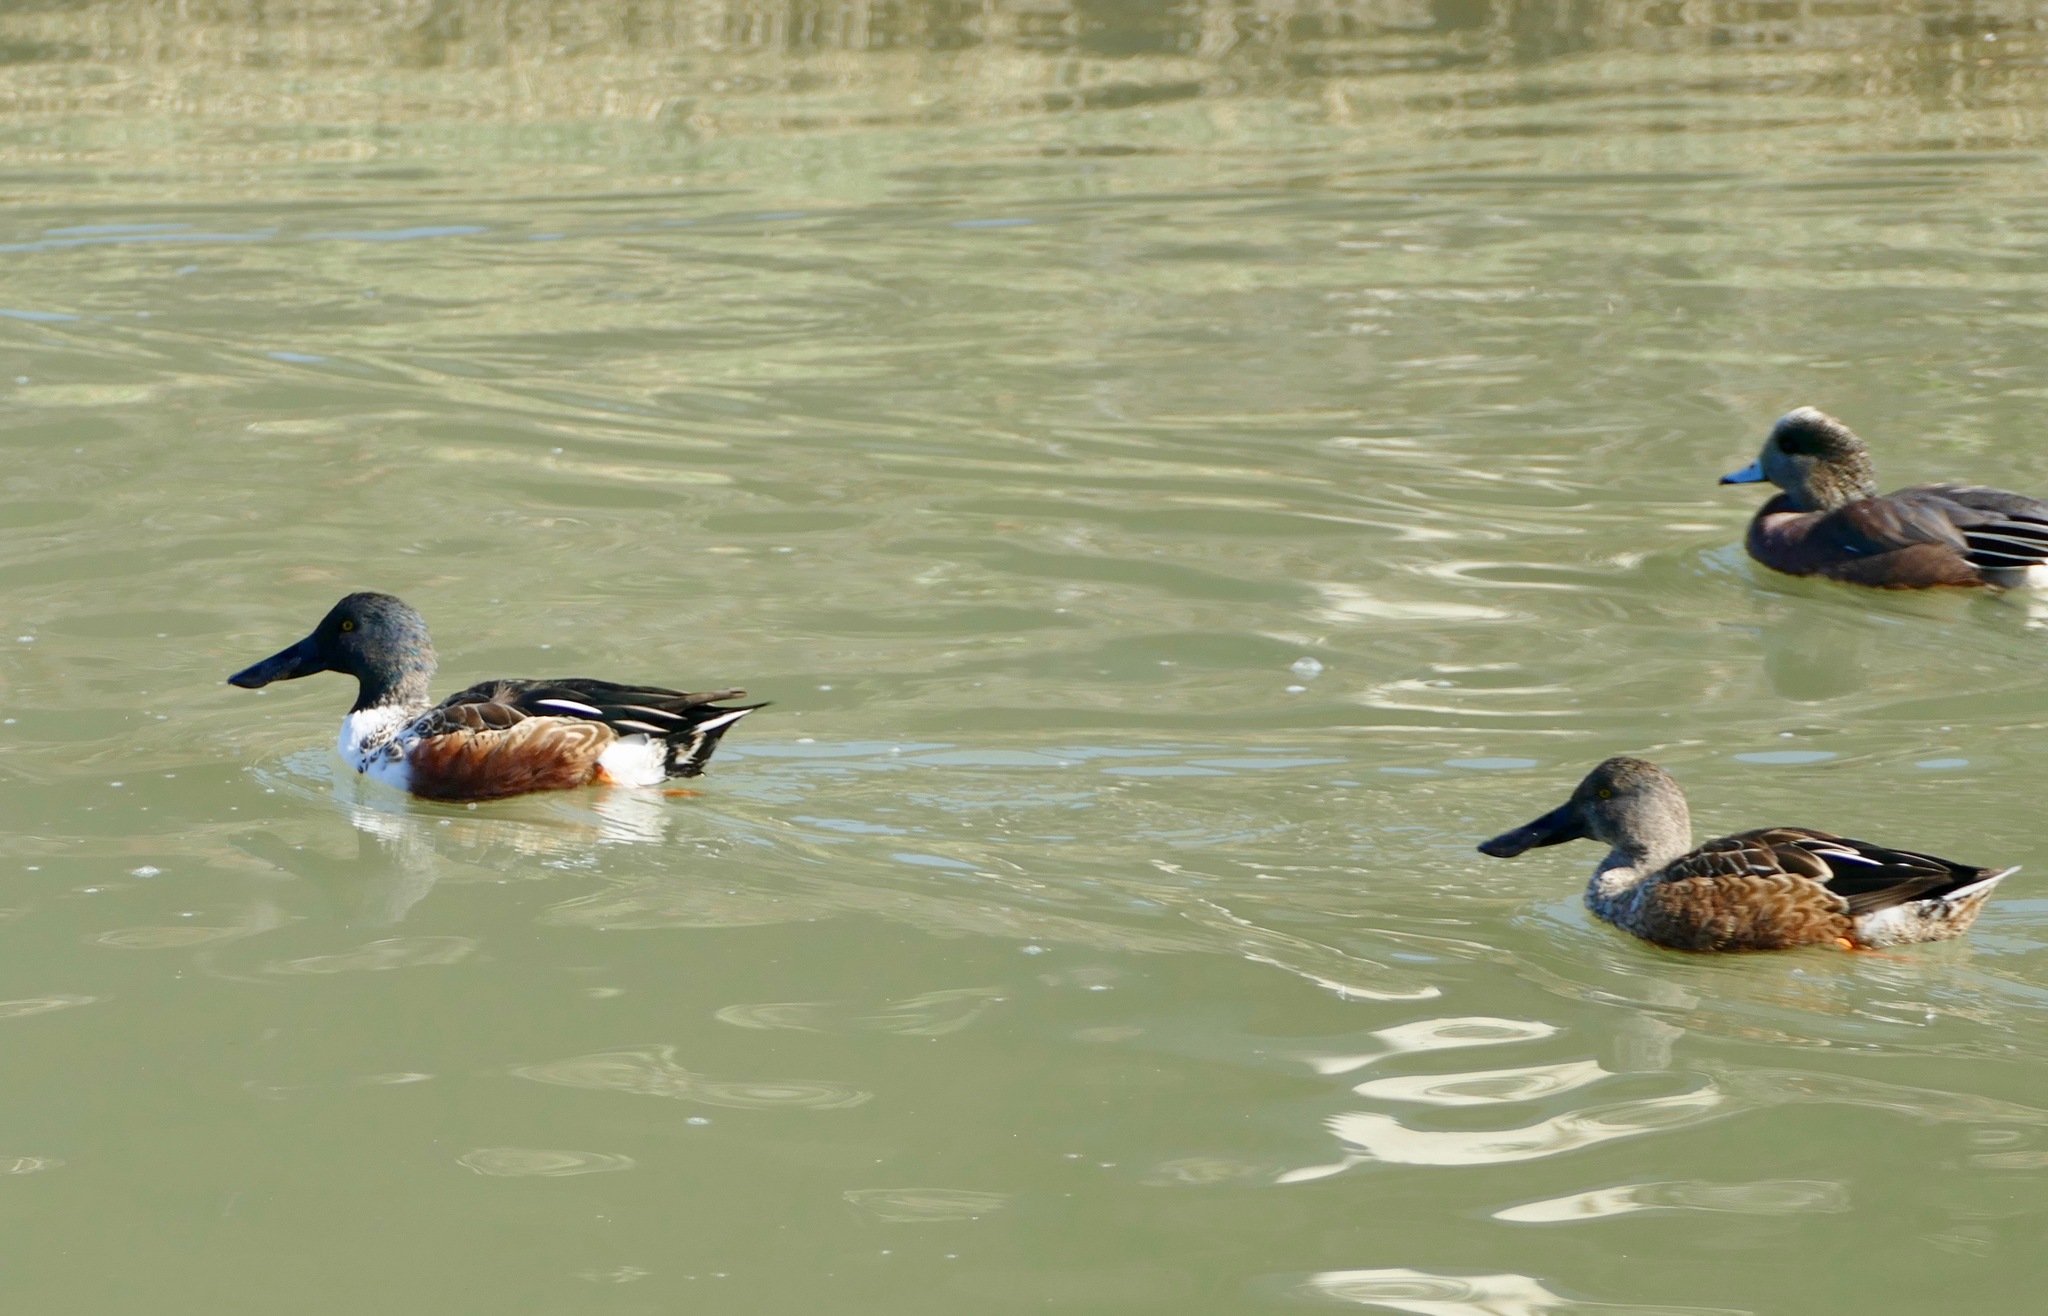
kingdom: Animalia
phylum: Chordata
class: Aves
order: Anseriformes
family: Anatidae
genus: Spatula
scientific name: Spatula clypeata
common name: Northern shoveler
